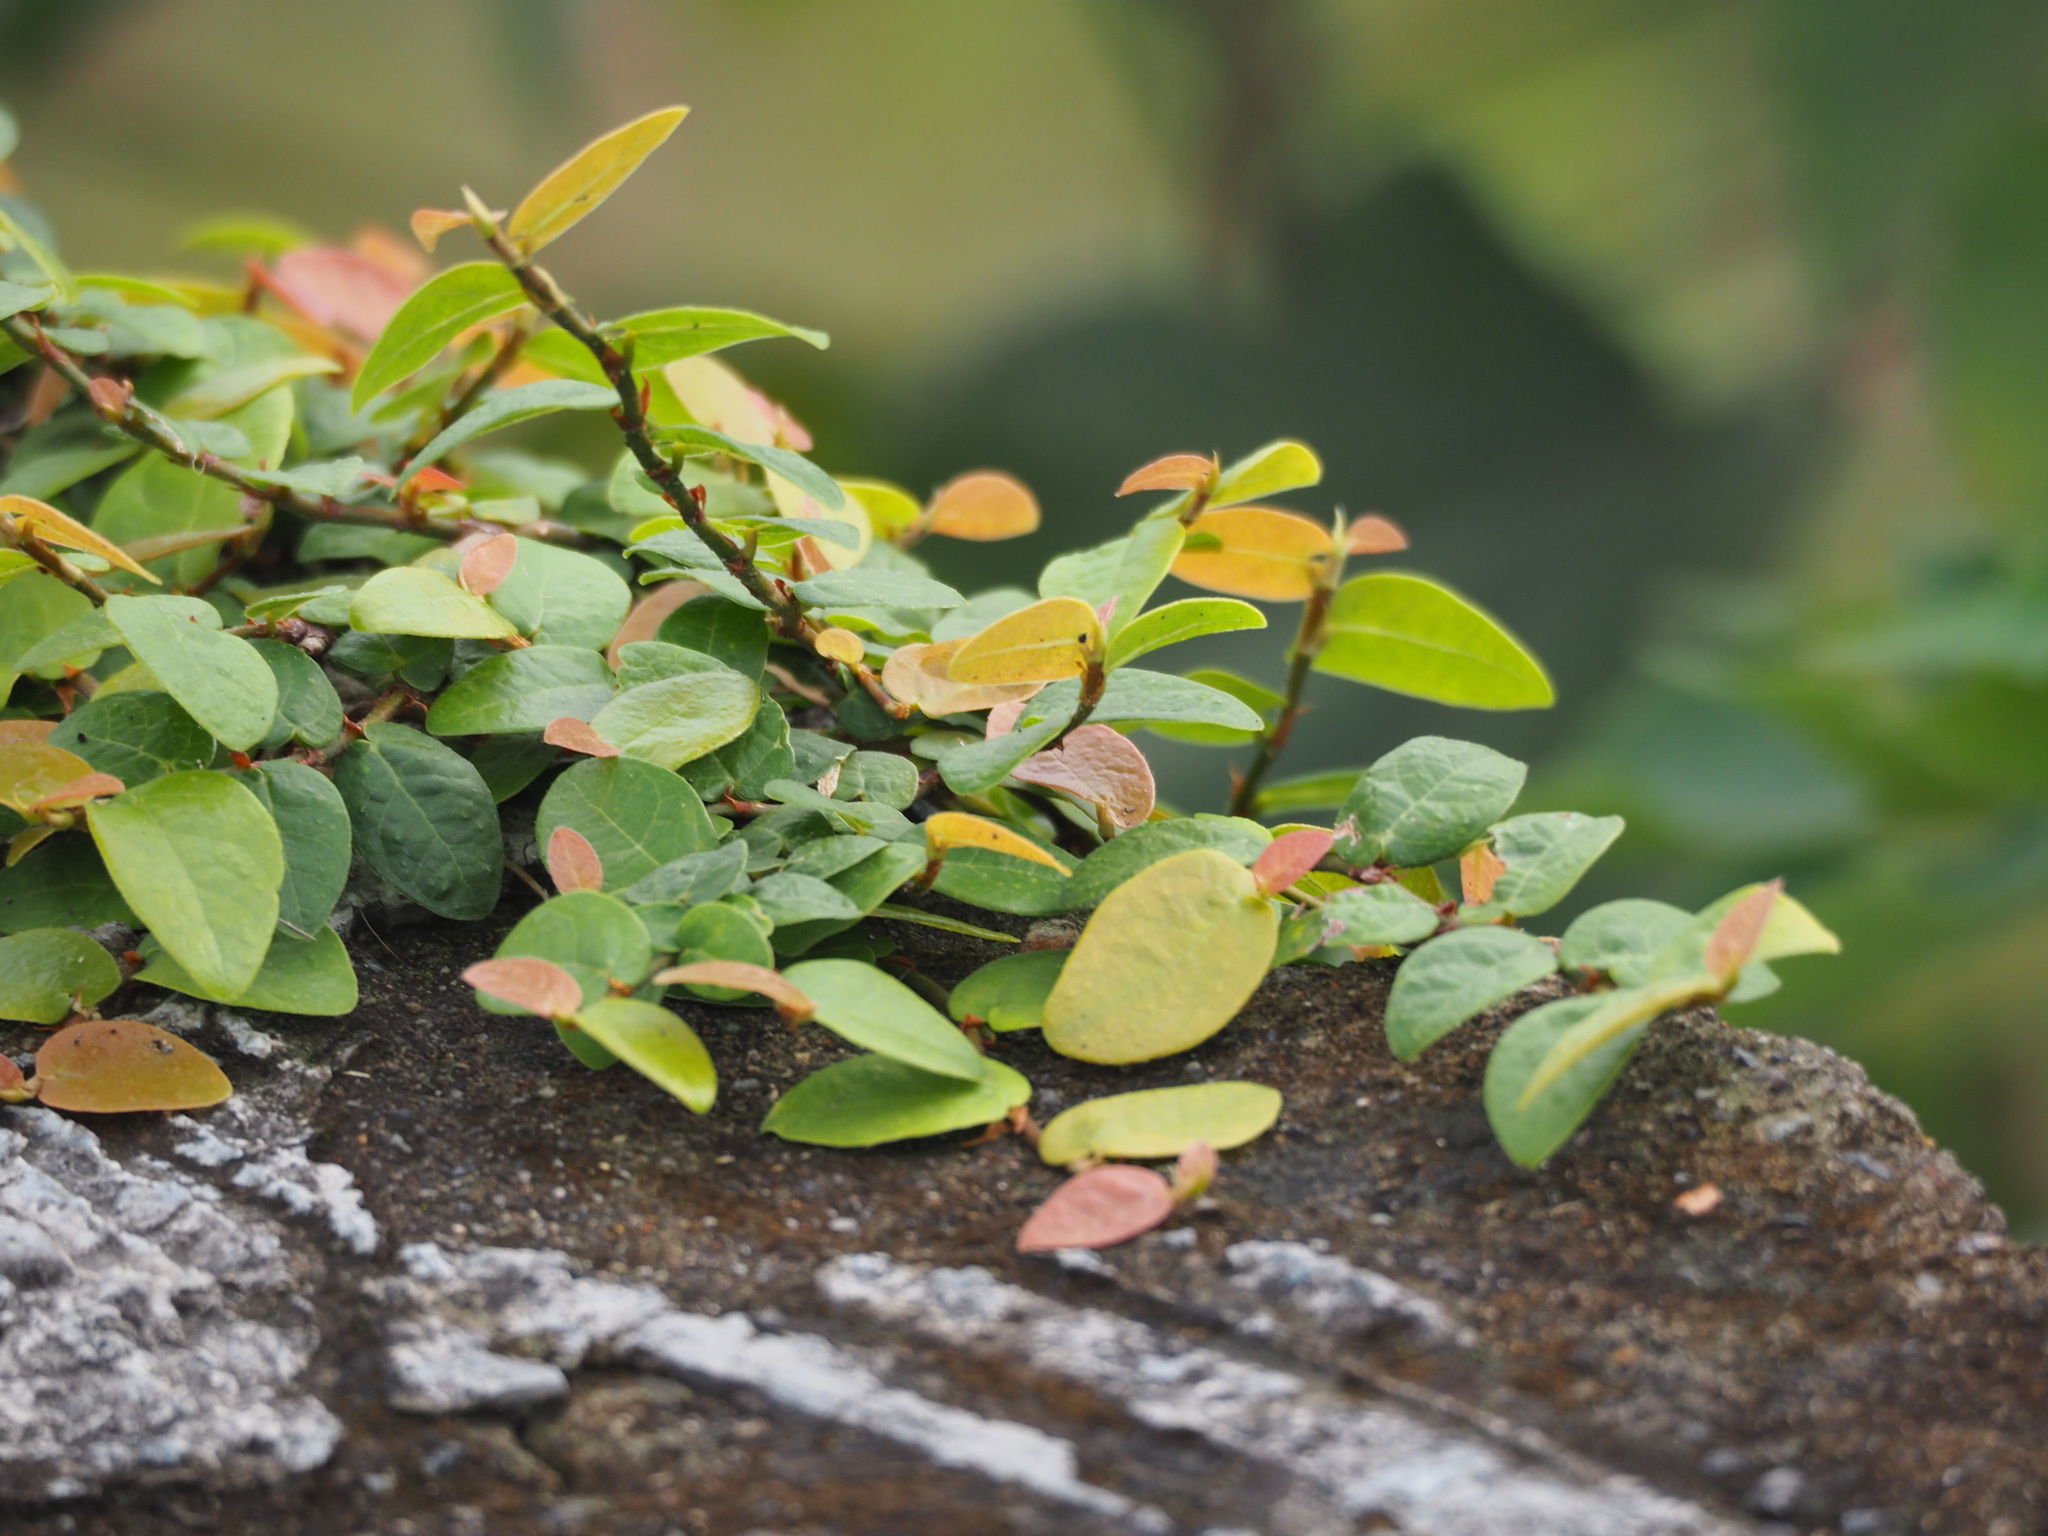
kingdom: Plantae
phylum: Tracheophyta
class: Magnoliopsida
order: Rosales
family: Moraceae
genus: Ficus
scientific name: Ficus pumila
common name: Climbingfig
